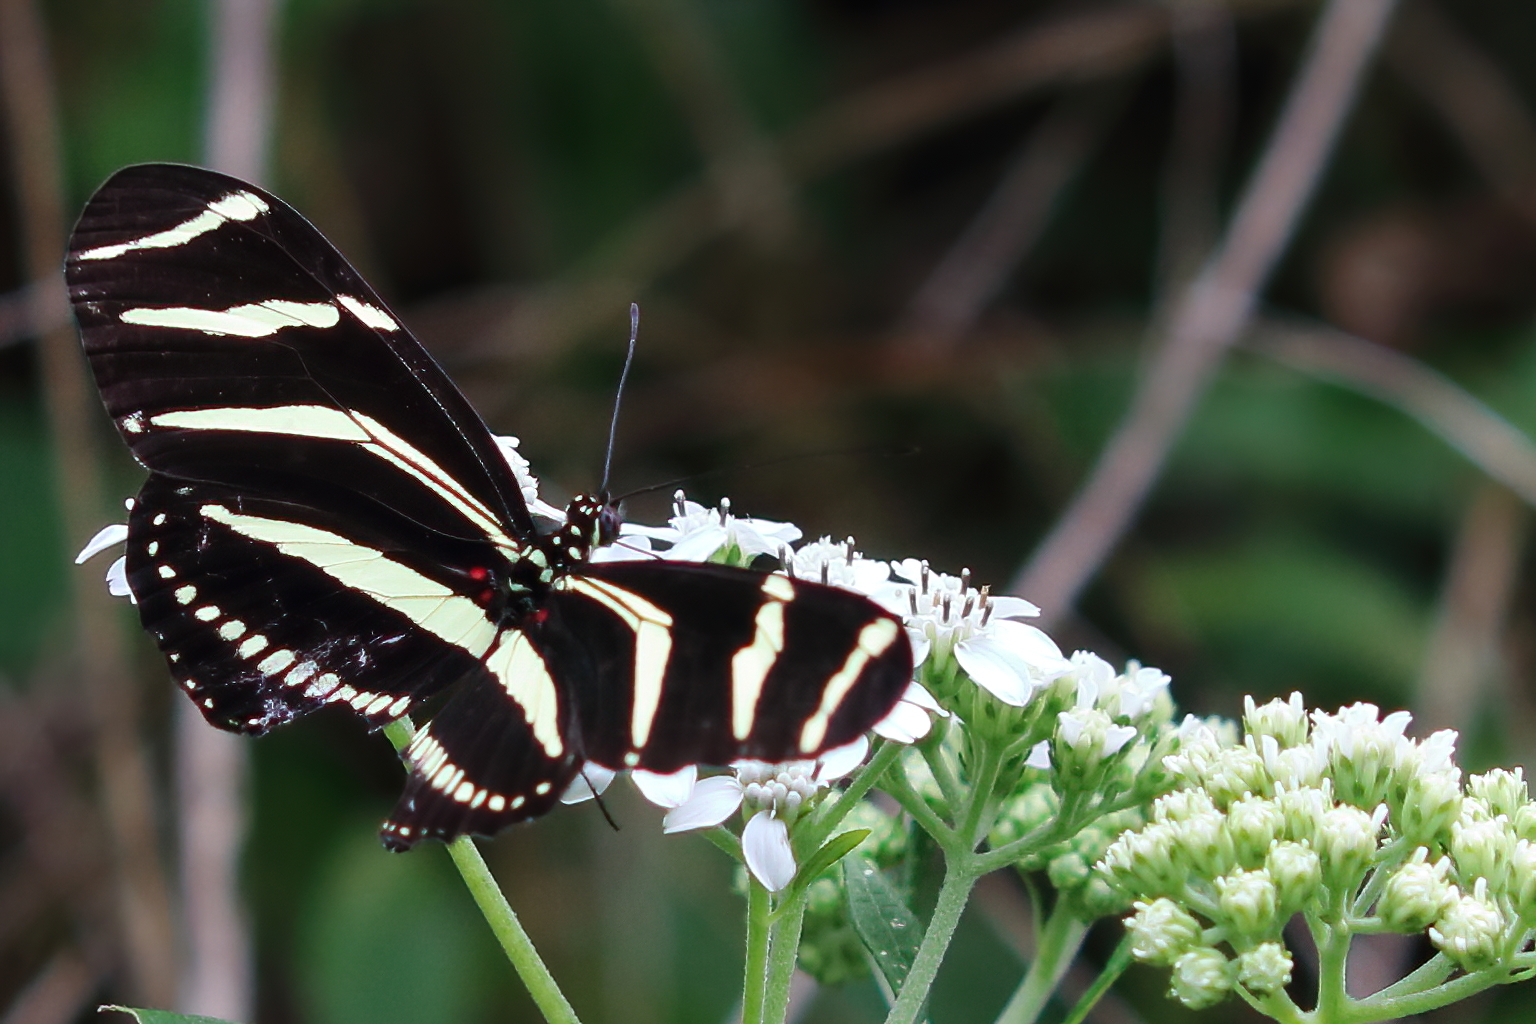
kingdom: Animalia
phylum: Arthropoda
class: Insecta
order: Lepidoptera
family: Nymphalidae
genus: Heliconius
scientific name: Heliconius charithonia
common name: Zebra long wing
